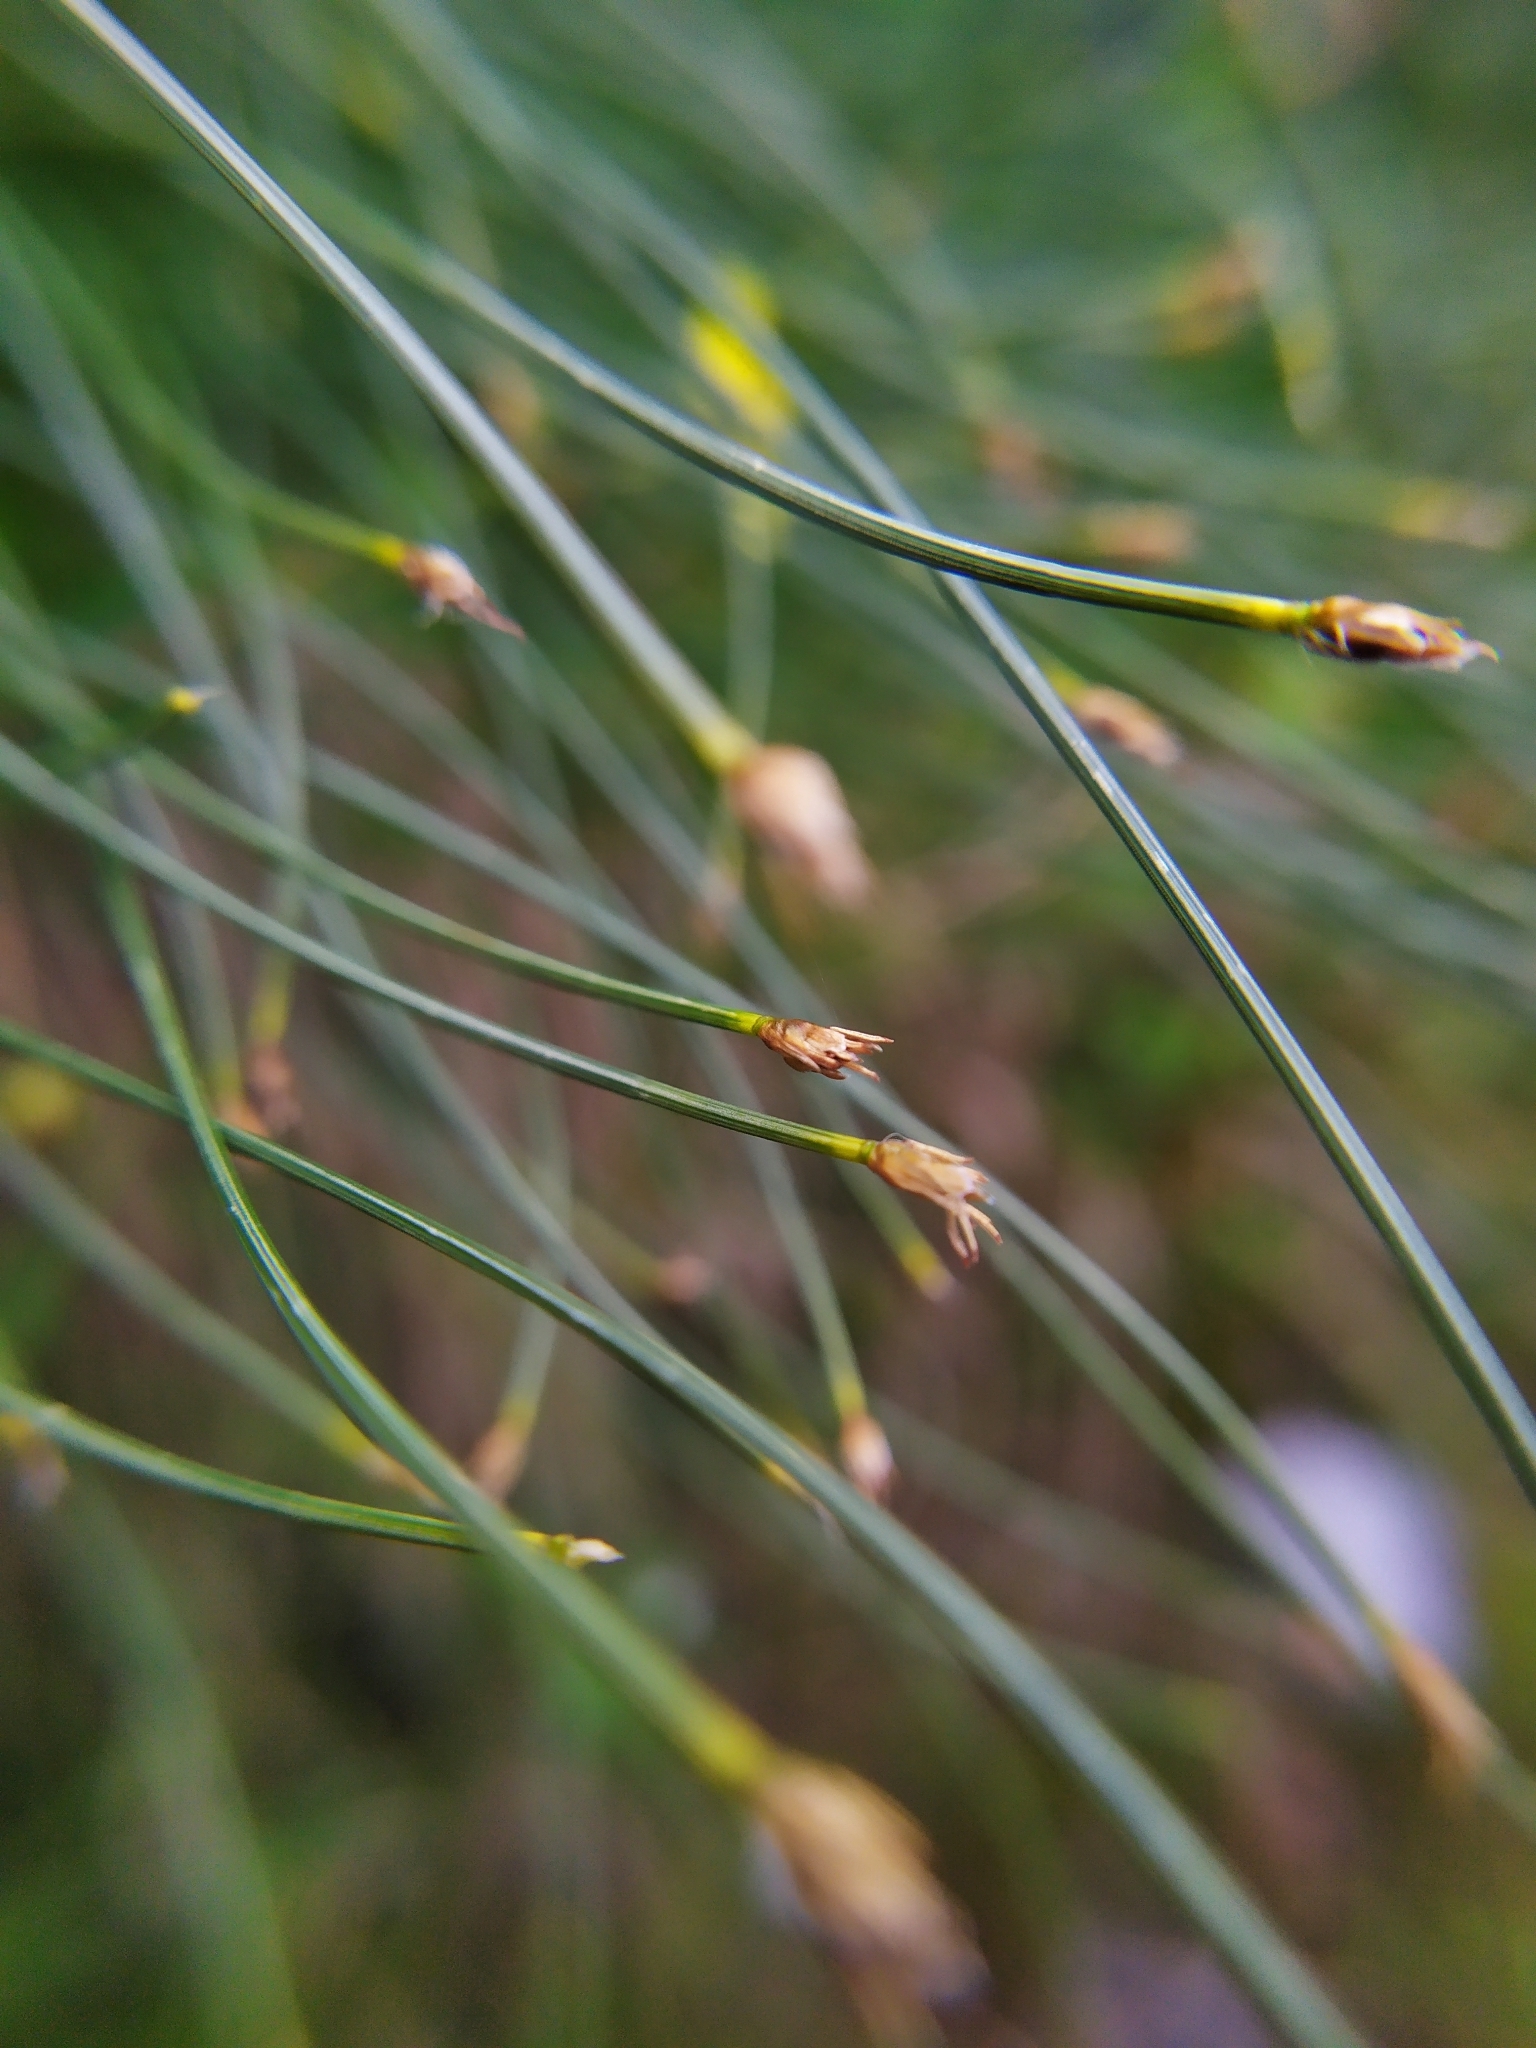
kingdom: Plantae
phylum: Tracheophyta
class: Liliopsida
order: Poales
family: Cyperaceae
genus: Trichophorum
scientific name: Trichophorum cespitosum
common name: Cespitose bulrush
